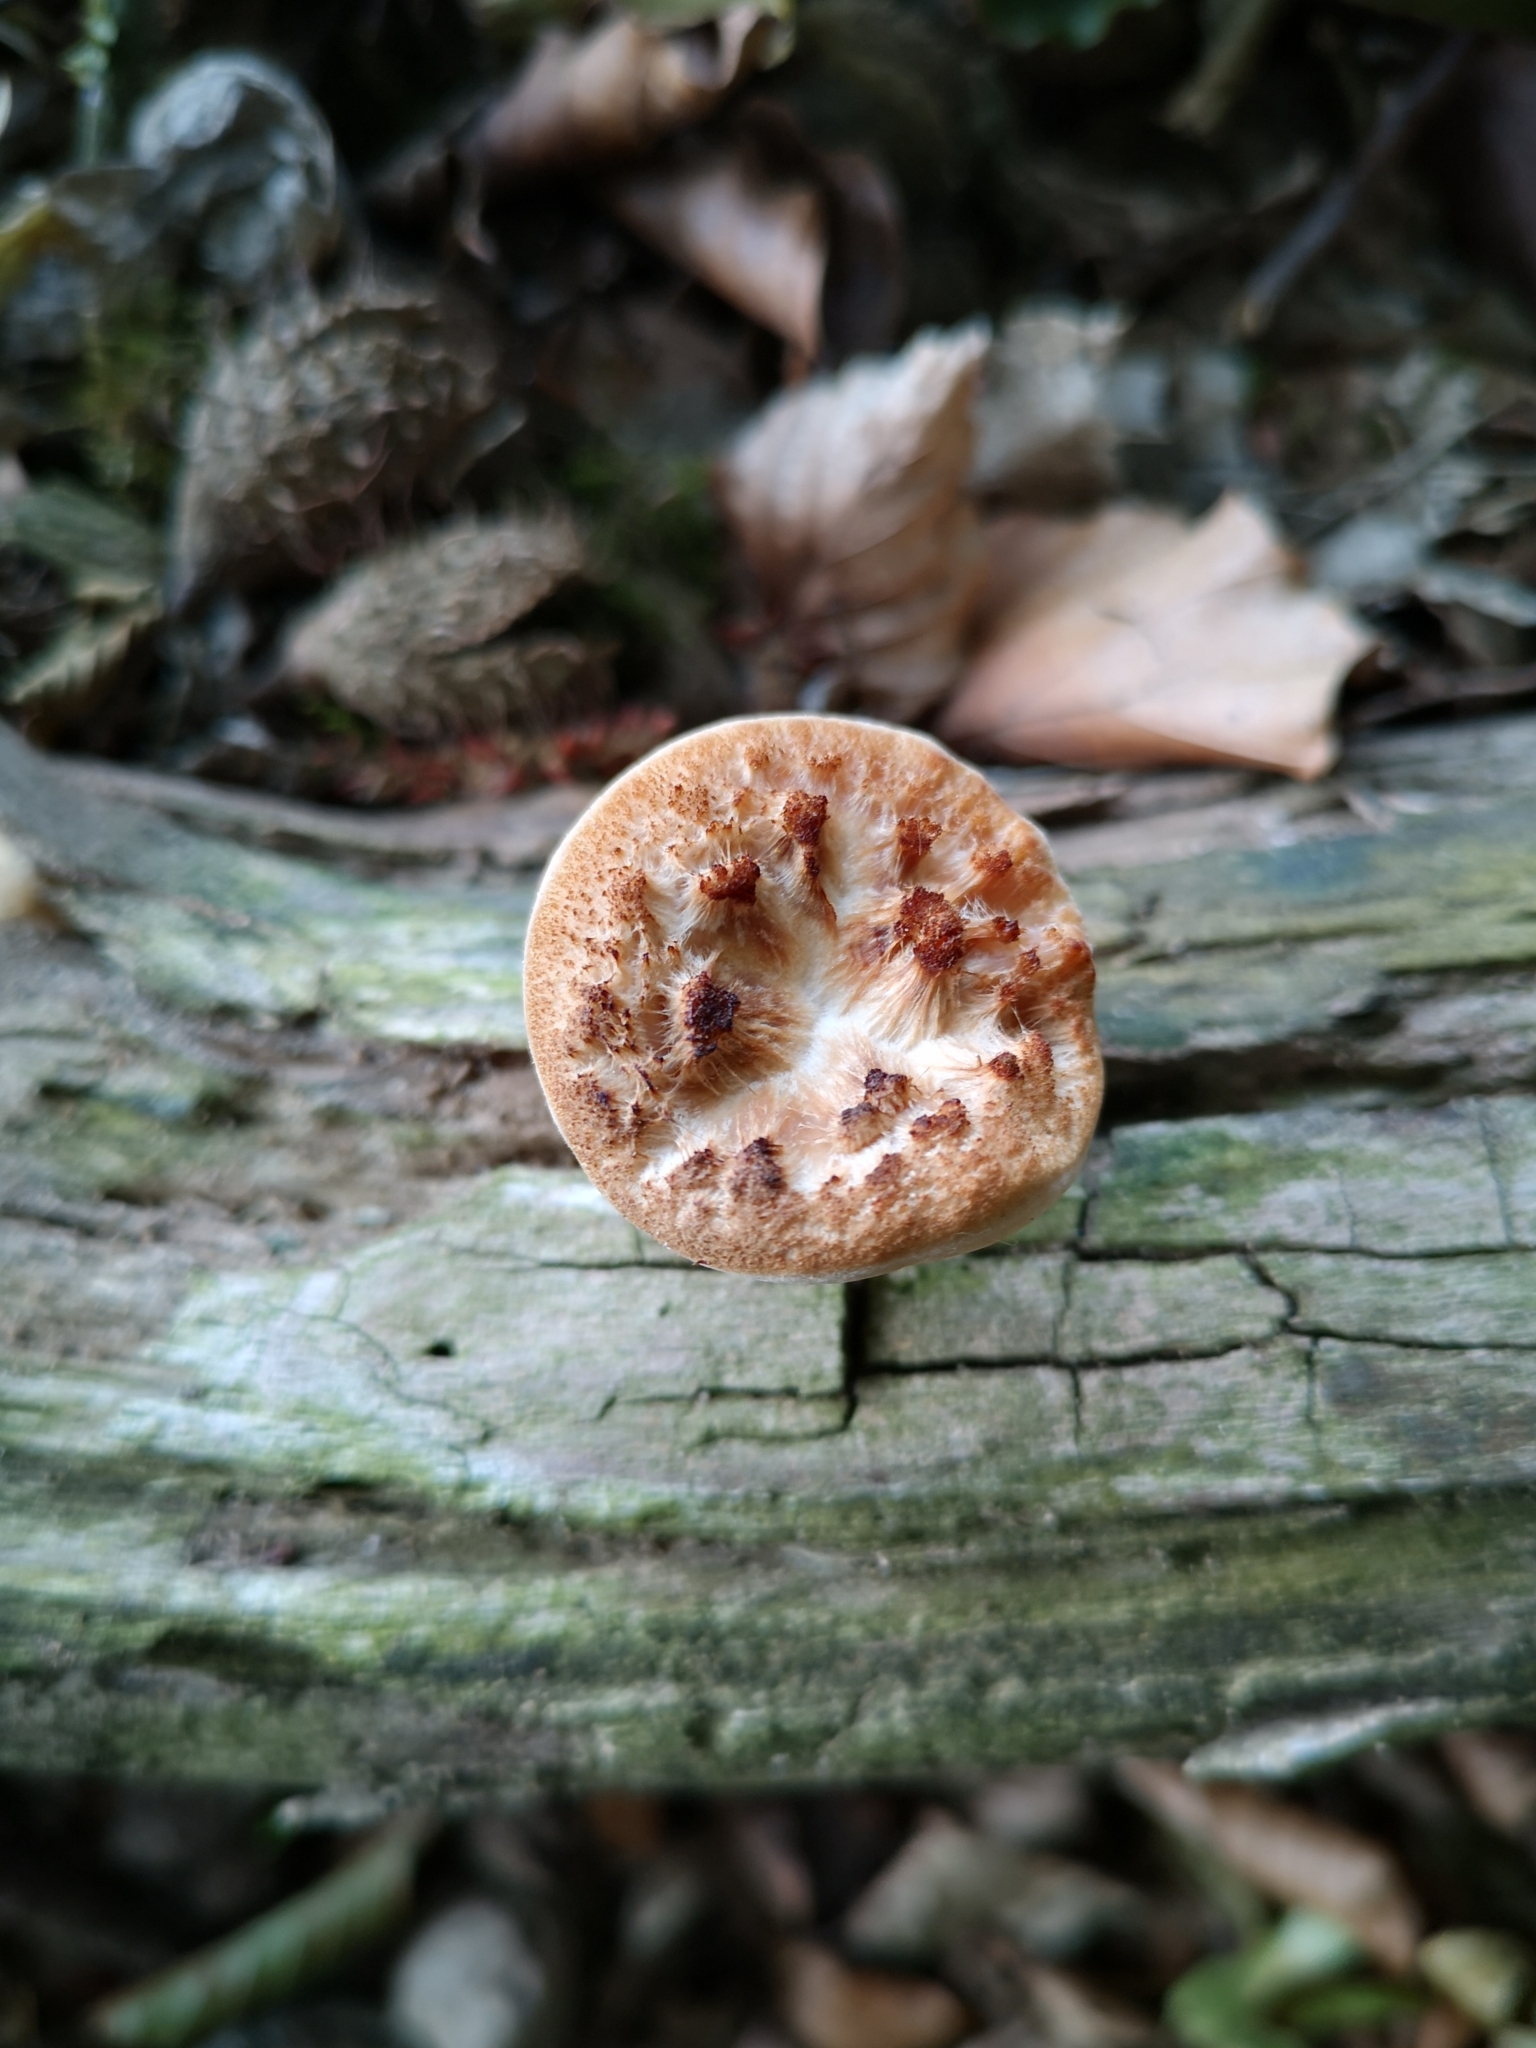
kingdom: Fungi
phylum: Basidiomycota
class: Agaricomycetes
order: Polyporales
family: Polyporaceae
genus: Cerioporus
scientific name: Cerioporus squamosus
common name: Dryad's saddle
